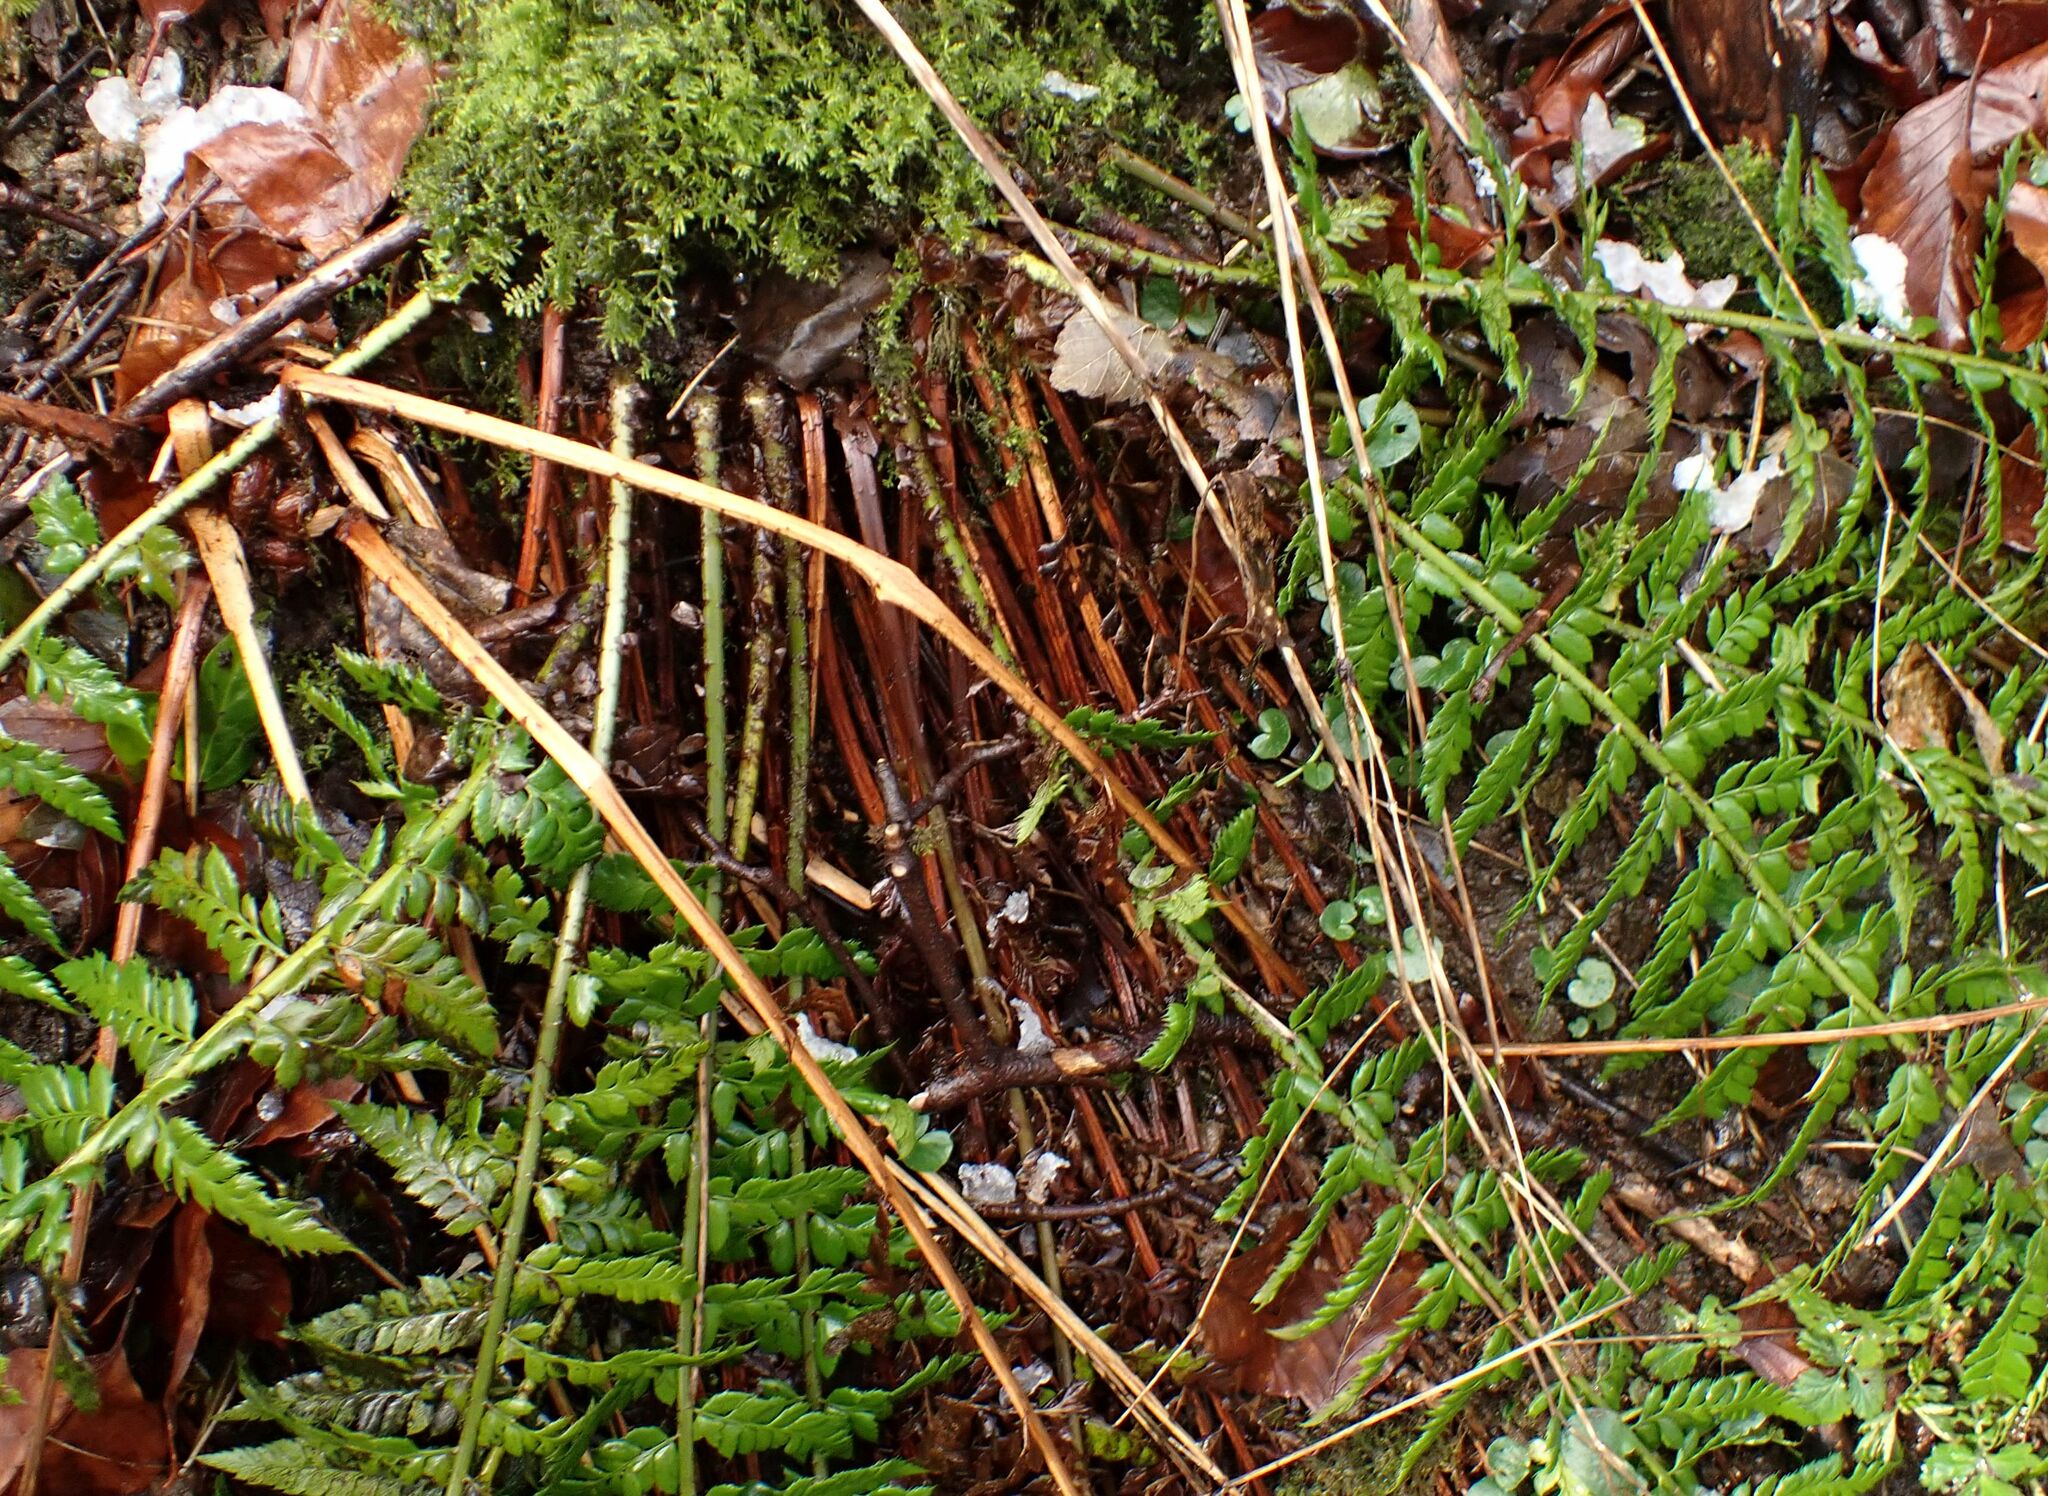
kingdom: Plantae
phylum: Tracheophyta
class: Polypodiopsida
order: Polypodiales
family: Dryopteridaceae
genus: Polystichum
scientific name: Polystichum aculeatum
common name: Hard shield-fern
